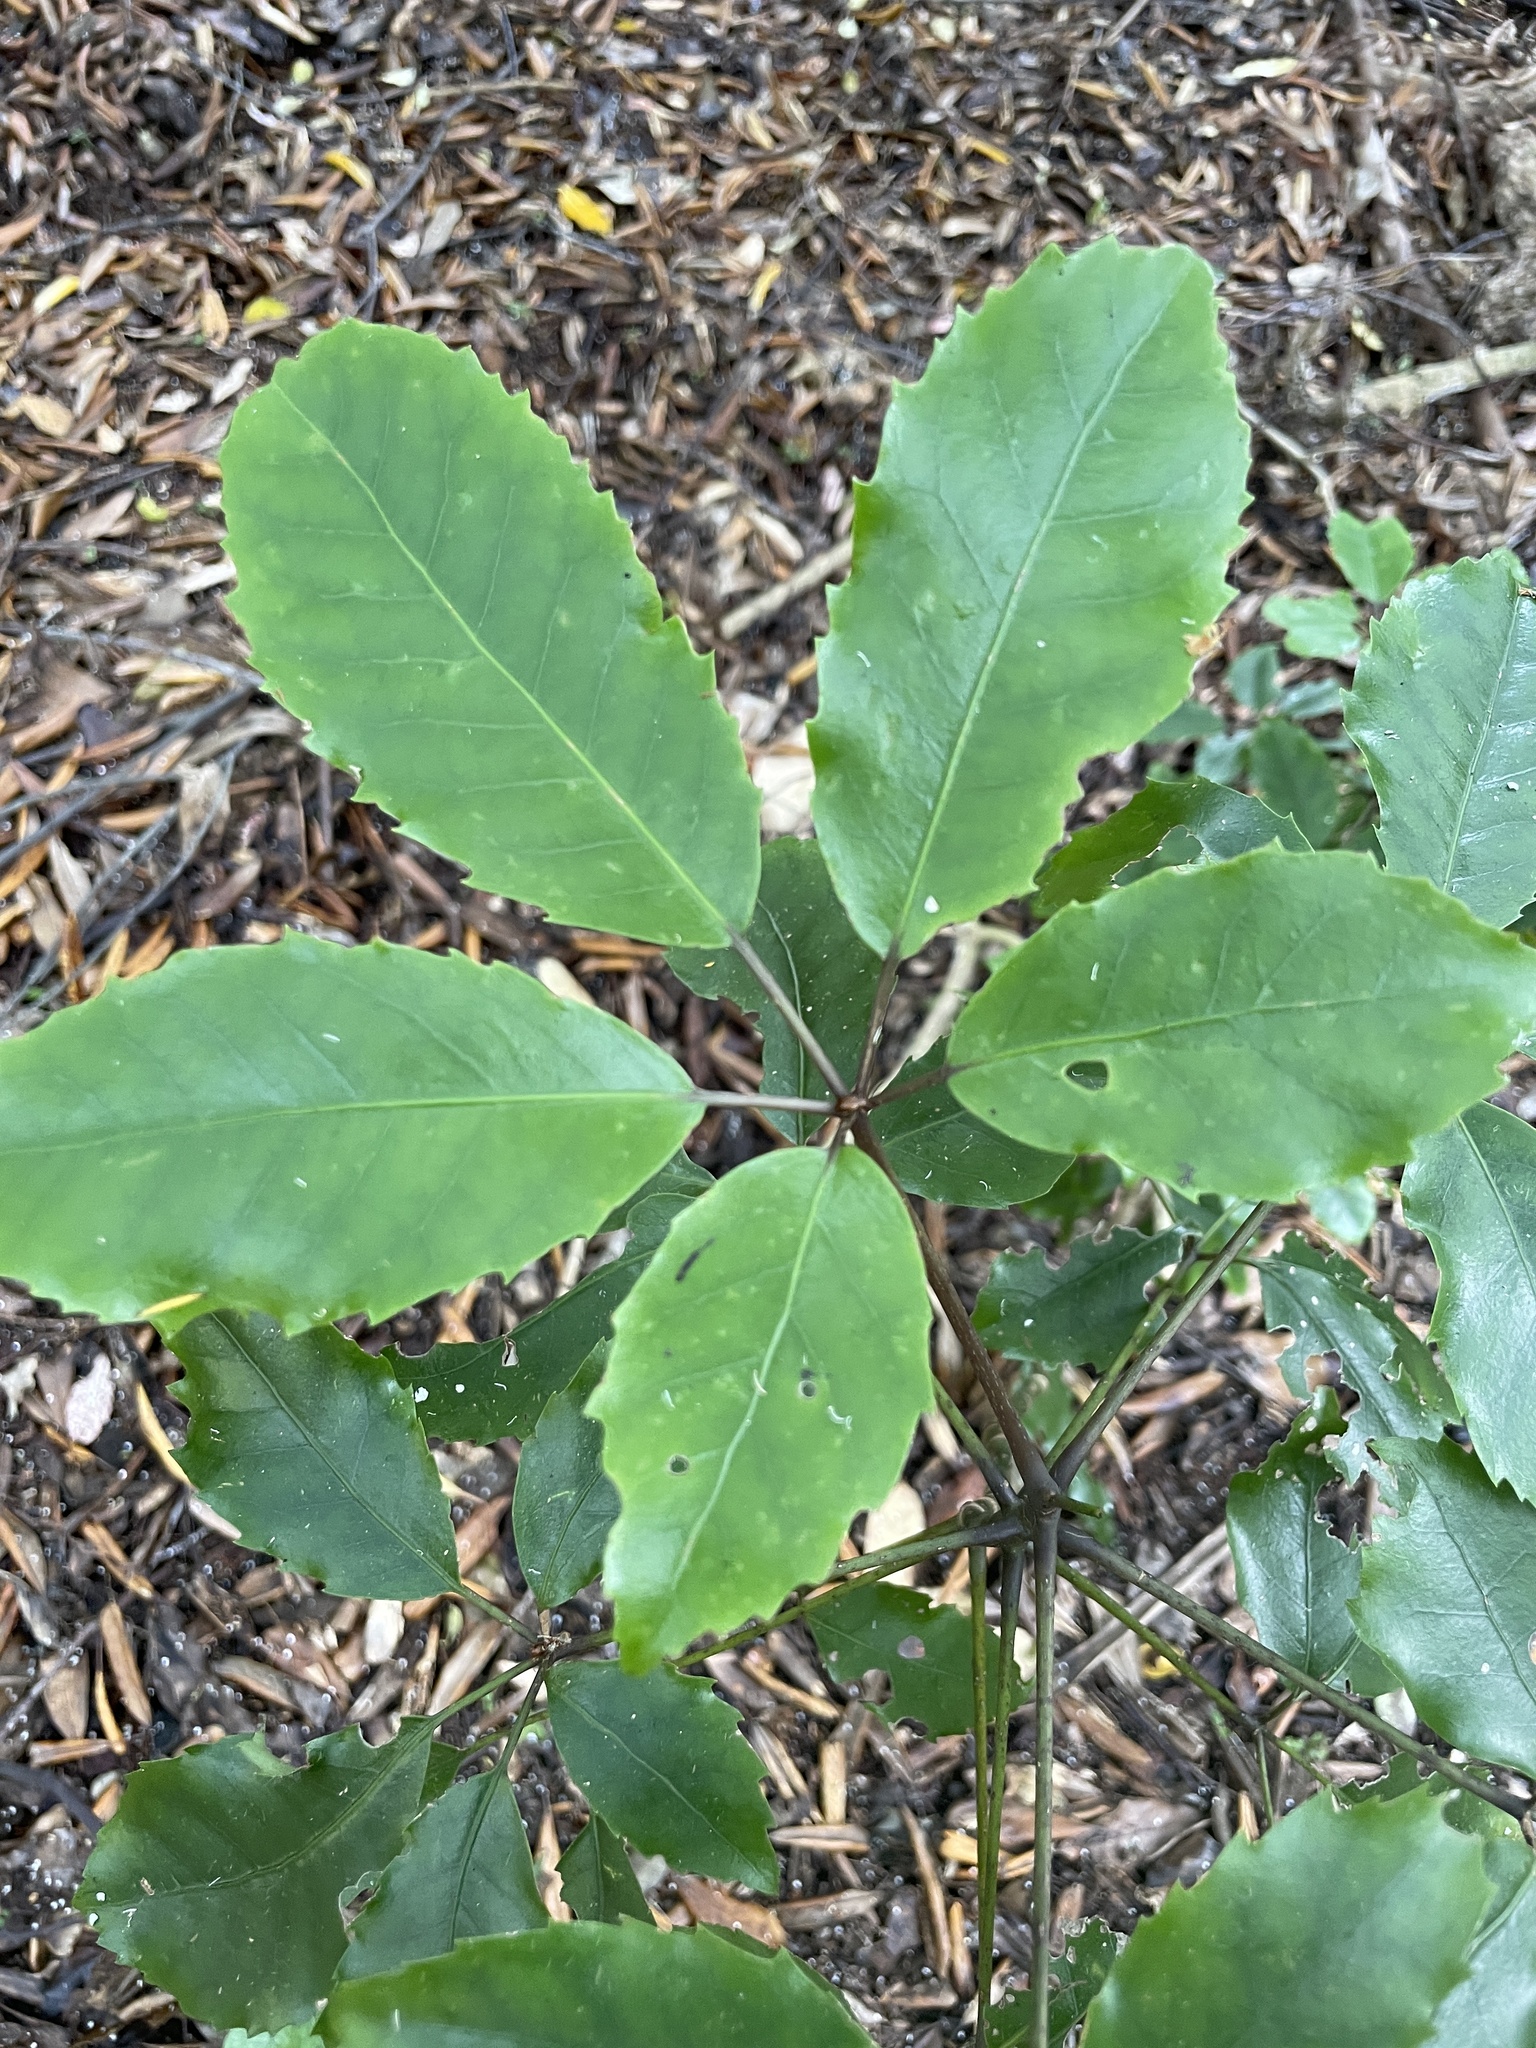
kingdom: Plantae
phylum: Tracheophyta
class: Magnoliopsida
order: Apiales
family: Araliaceae
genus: Neopanax
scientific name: Neopanax arboreus
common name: Five-fingers
